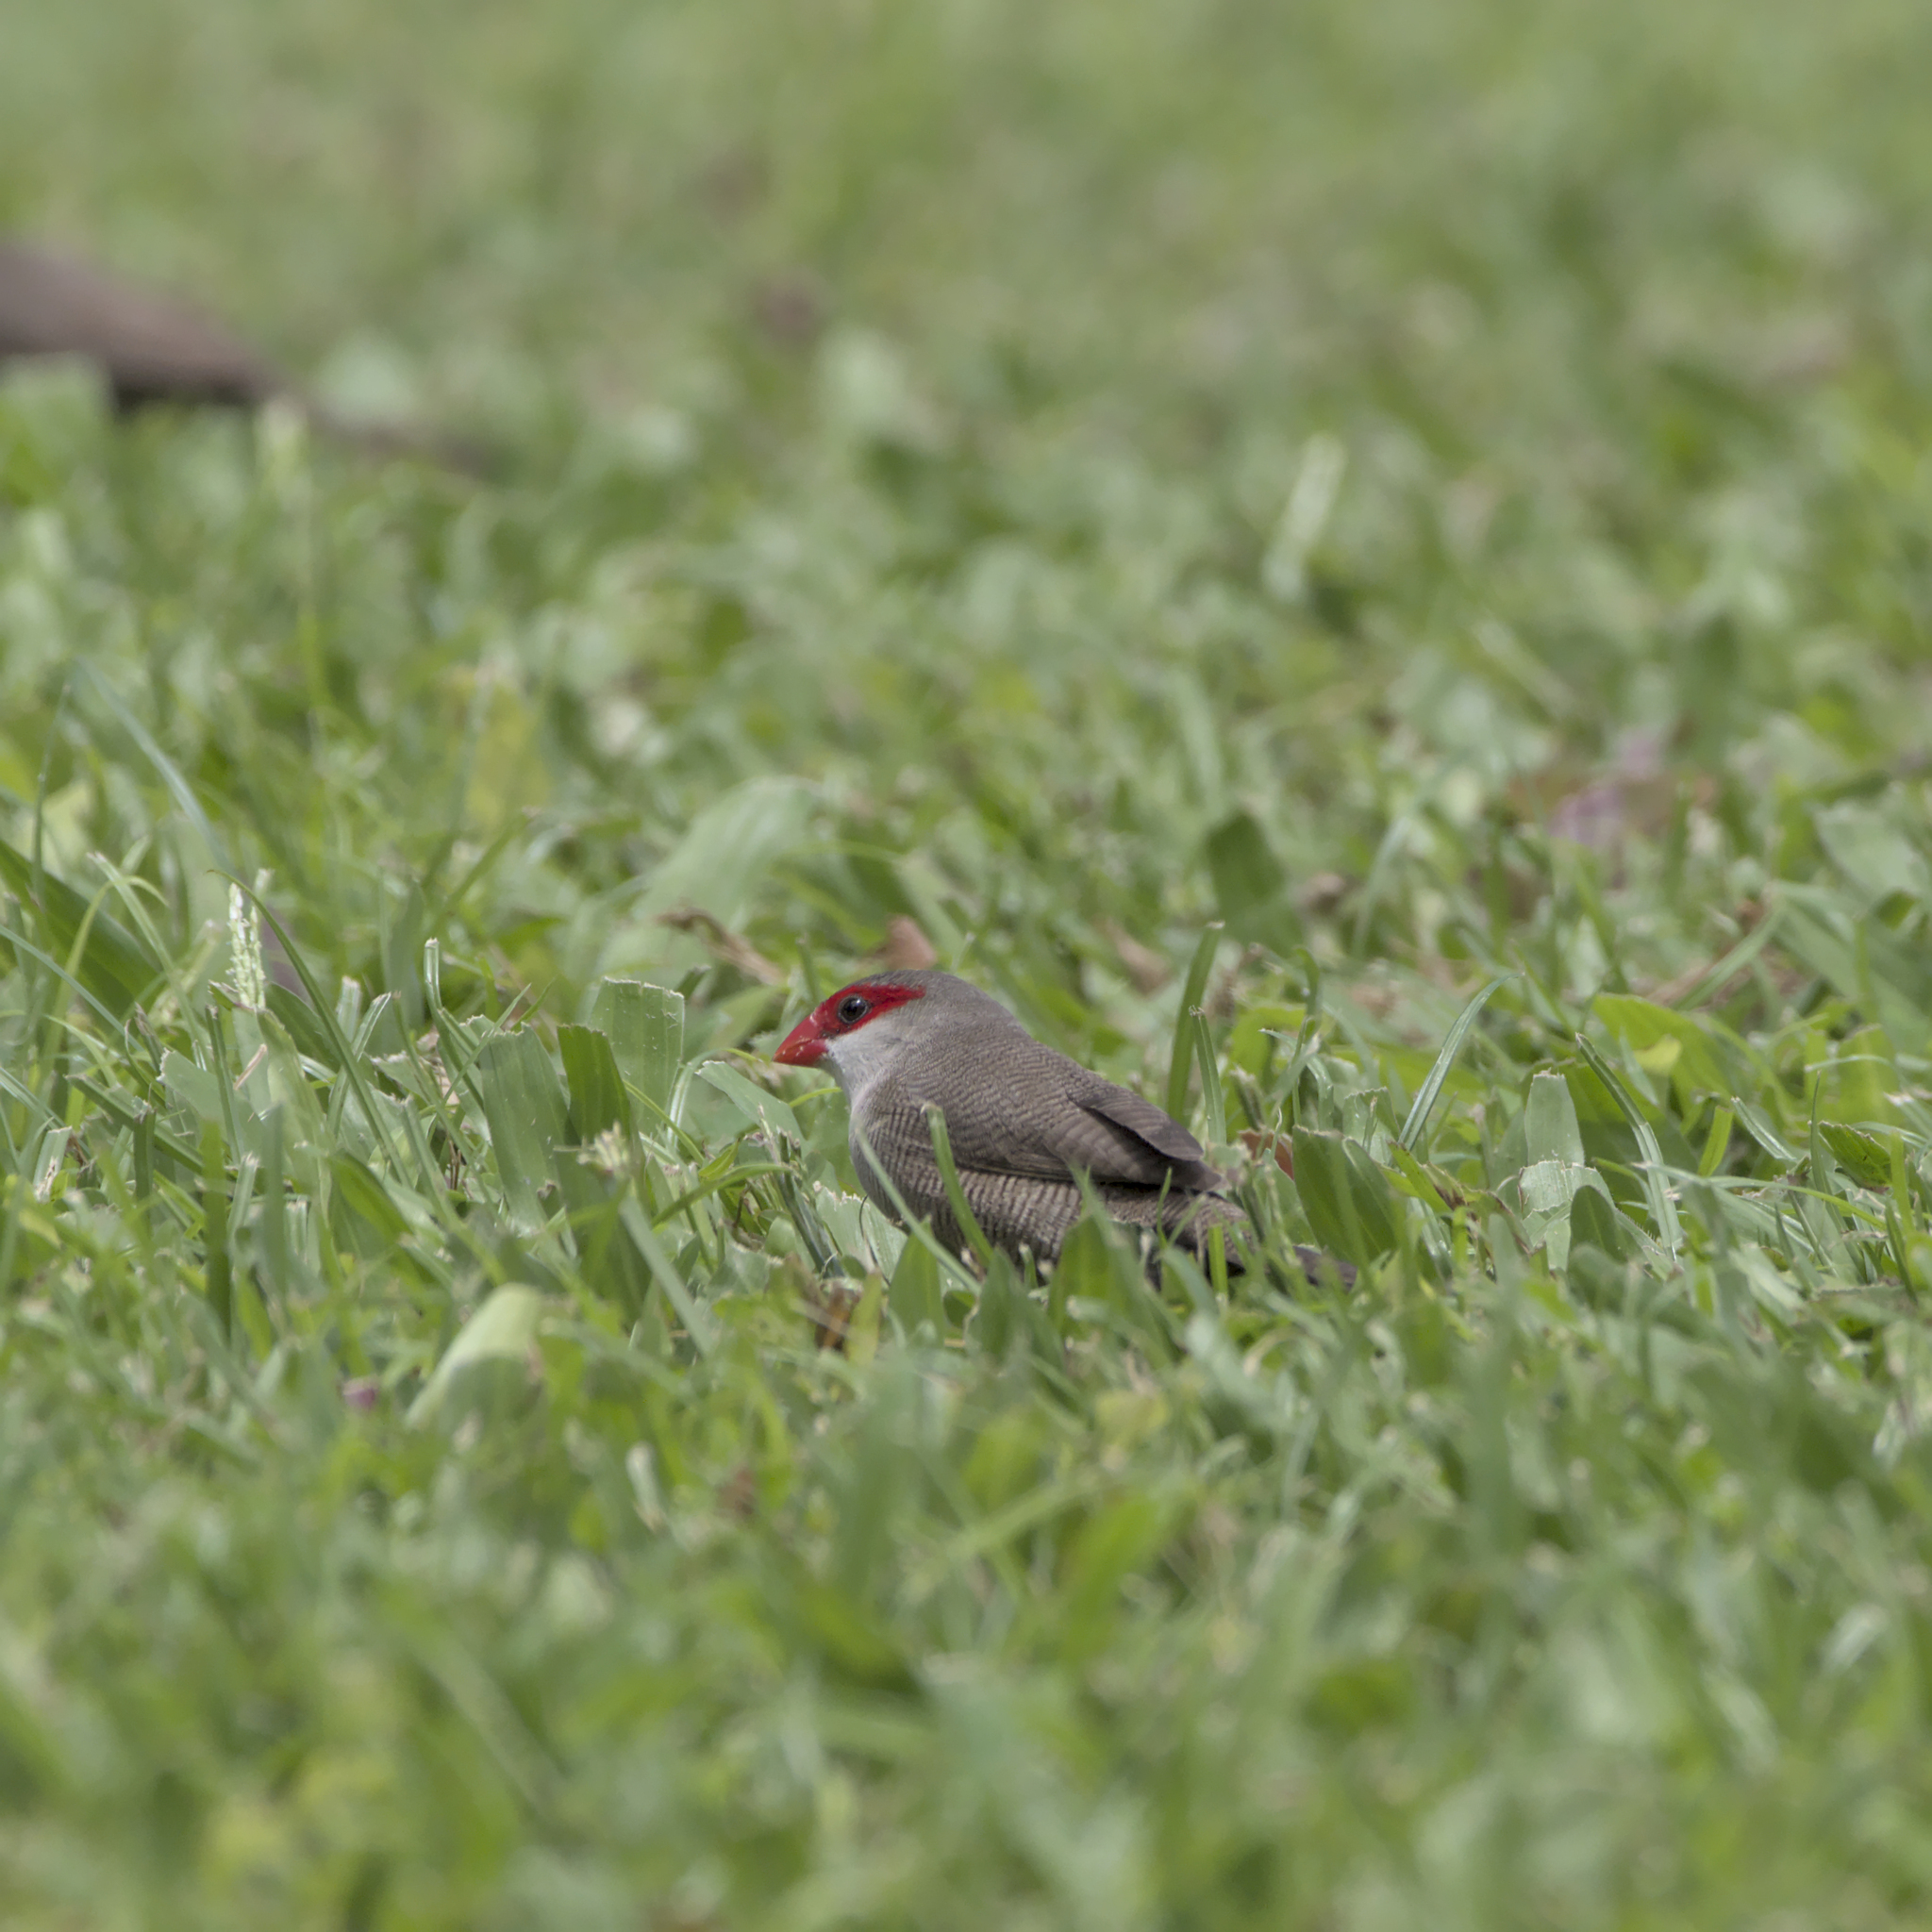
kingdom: Animalia
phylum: Chordata
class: Aves
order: Passeriformes
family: Estrildidae
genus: Estrilda
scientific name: Estrilda astrild
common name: Common waxbill
